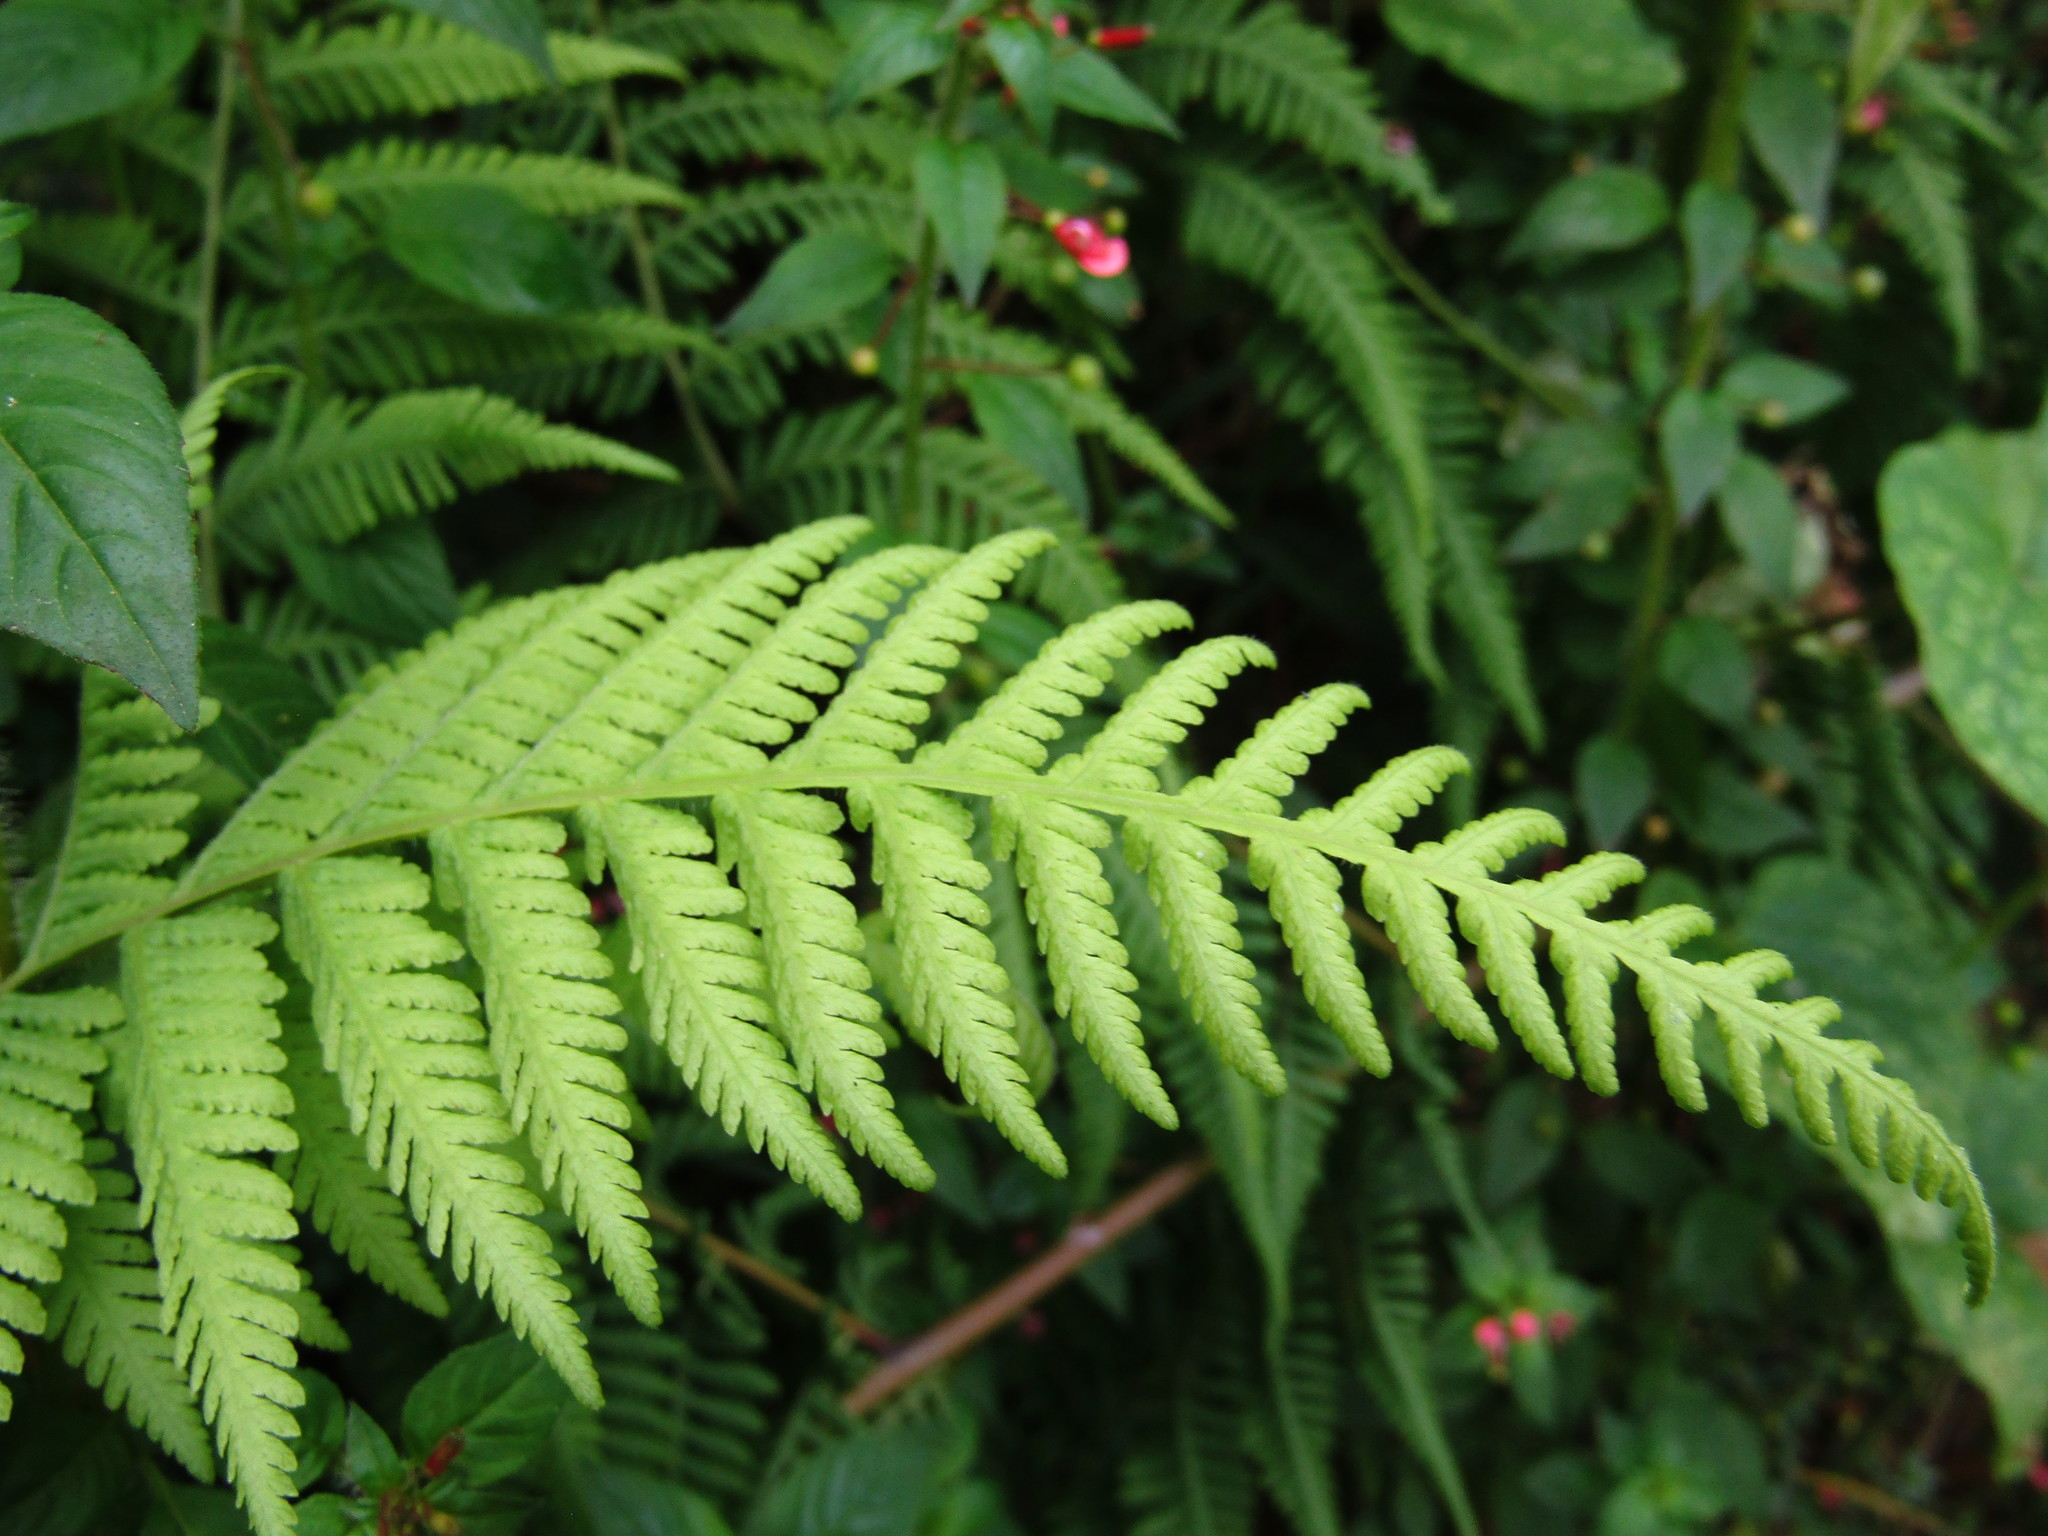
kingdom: Plantae
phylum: Tracheophyta
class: Polypodiopsida
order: Polypodiales
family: Thelypteridaceae
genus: Macrothelypteris
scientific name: Macrothelypteris torresiana
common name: Swordfern
